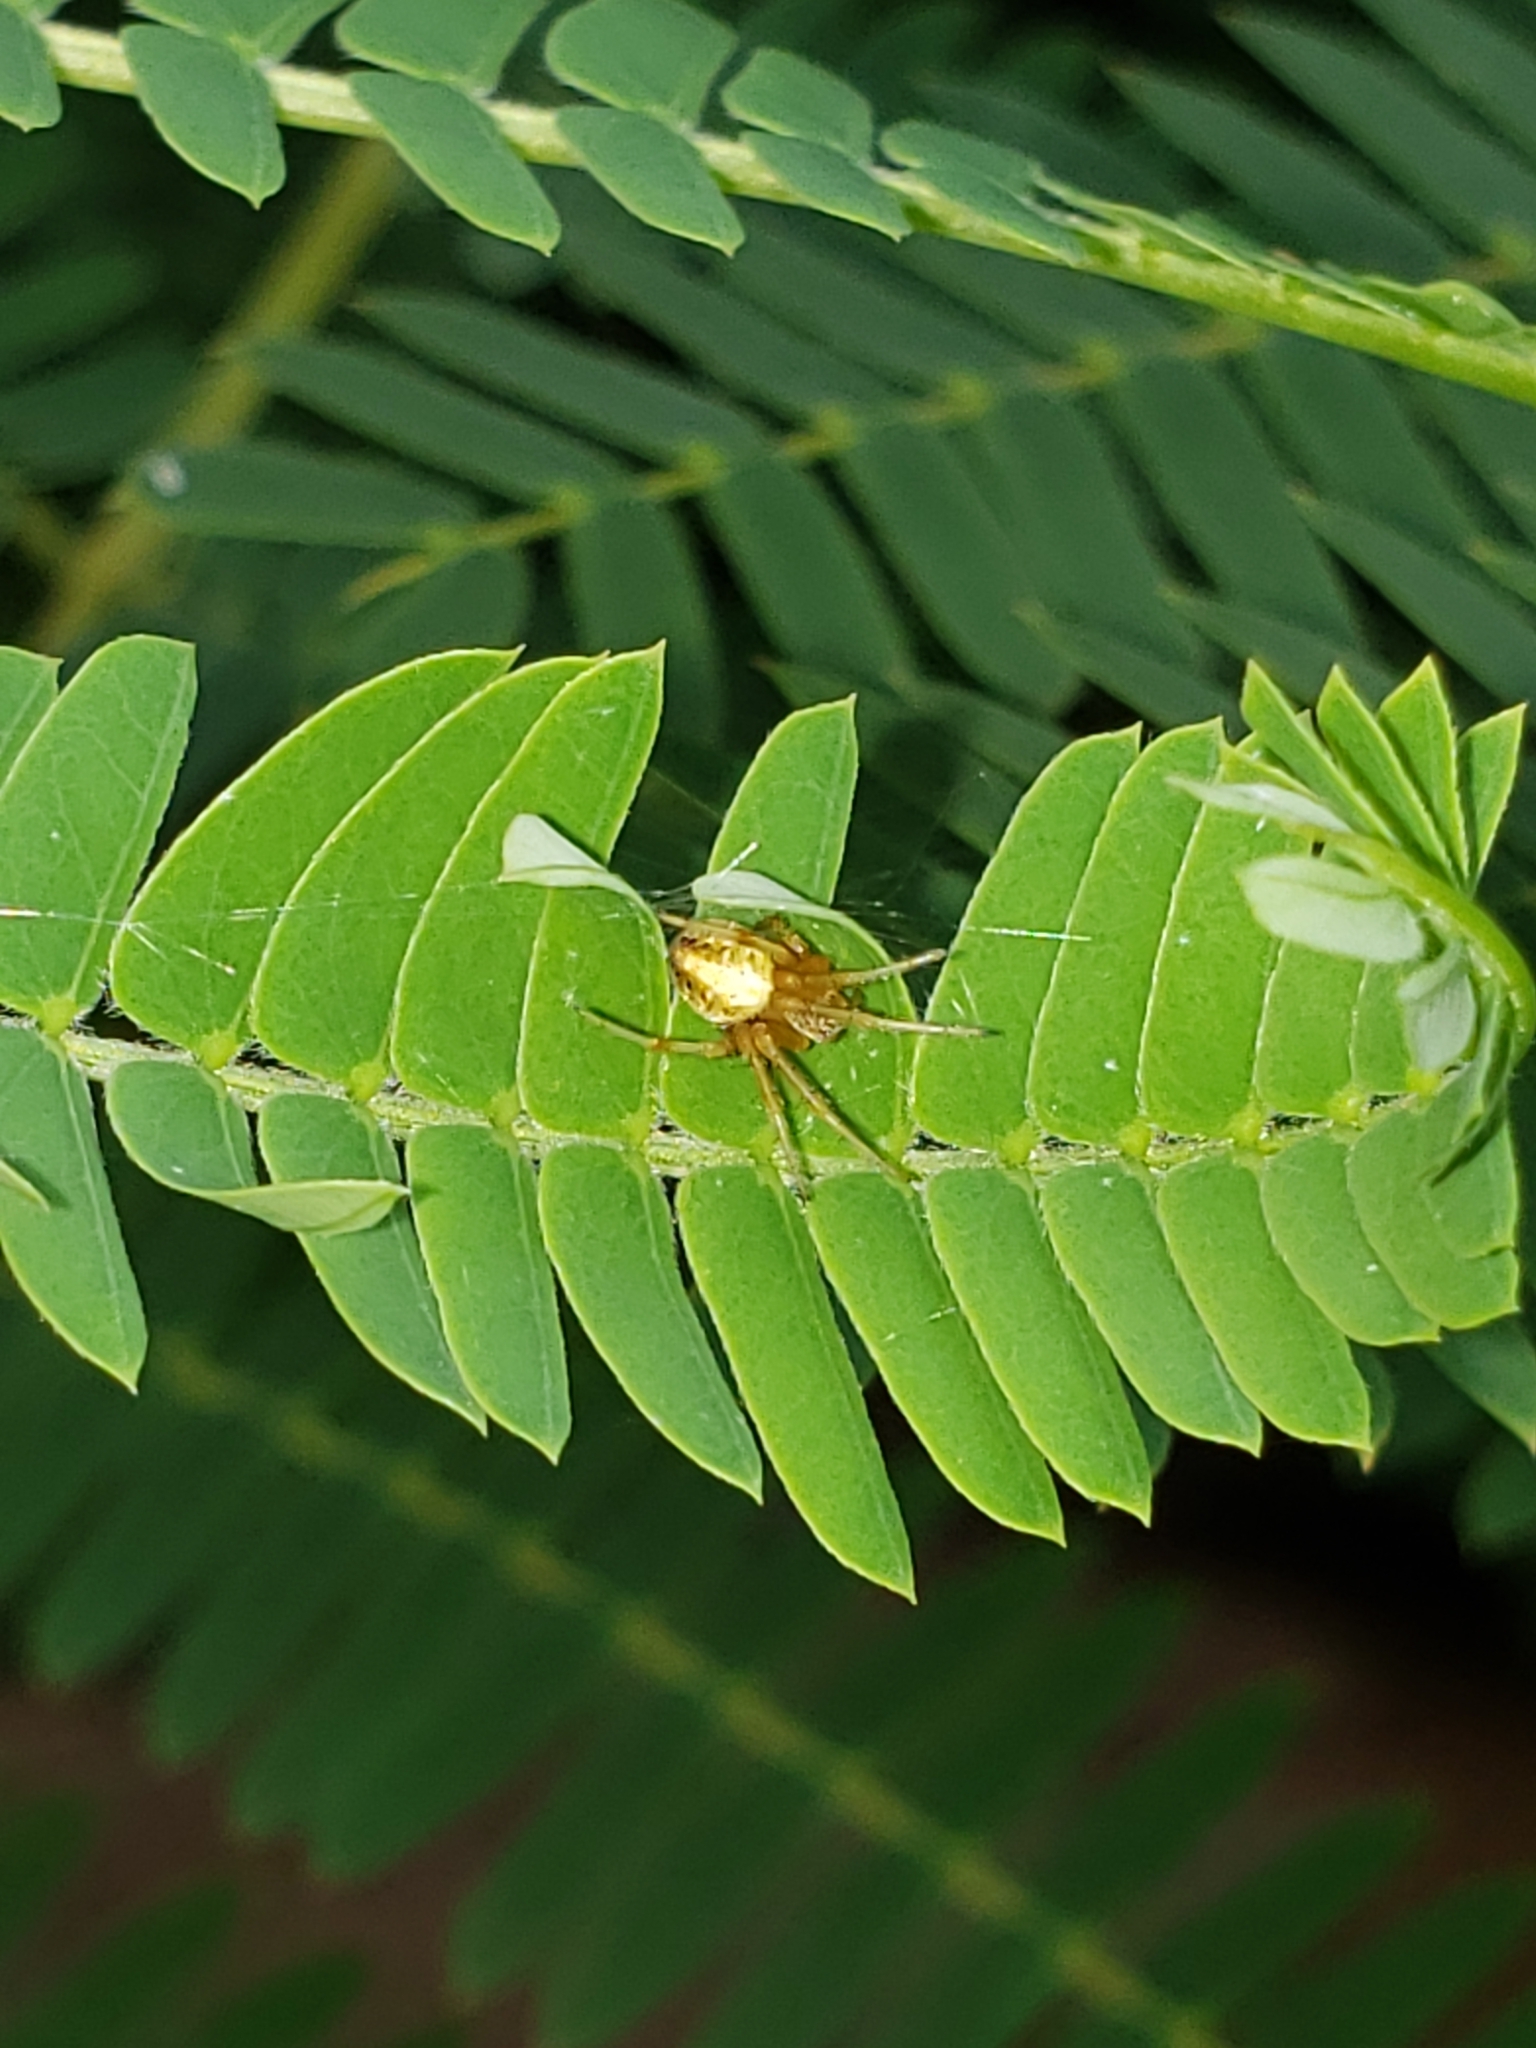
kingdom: Animalia
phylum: Arthropoda
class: Arachnida
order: Araneae
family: Araneidae
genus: Neoscona
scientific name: Neoscona arabesca
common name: Orb weavers
